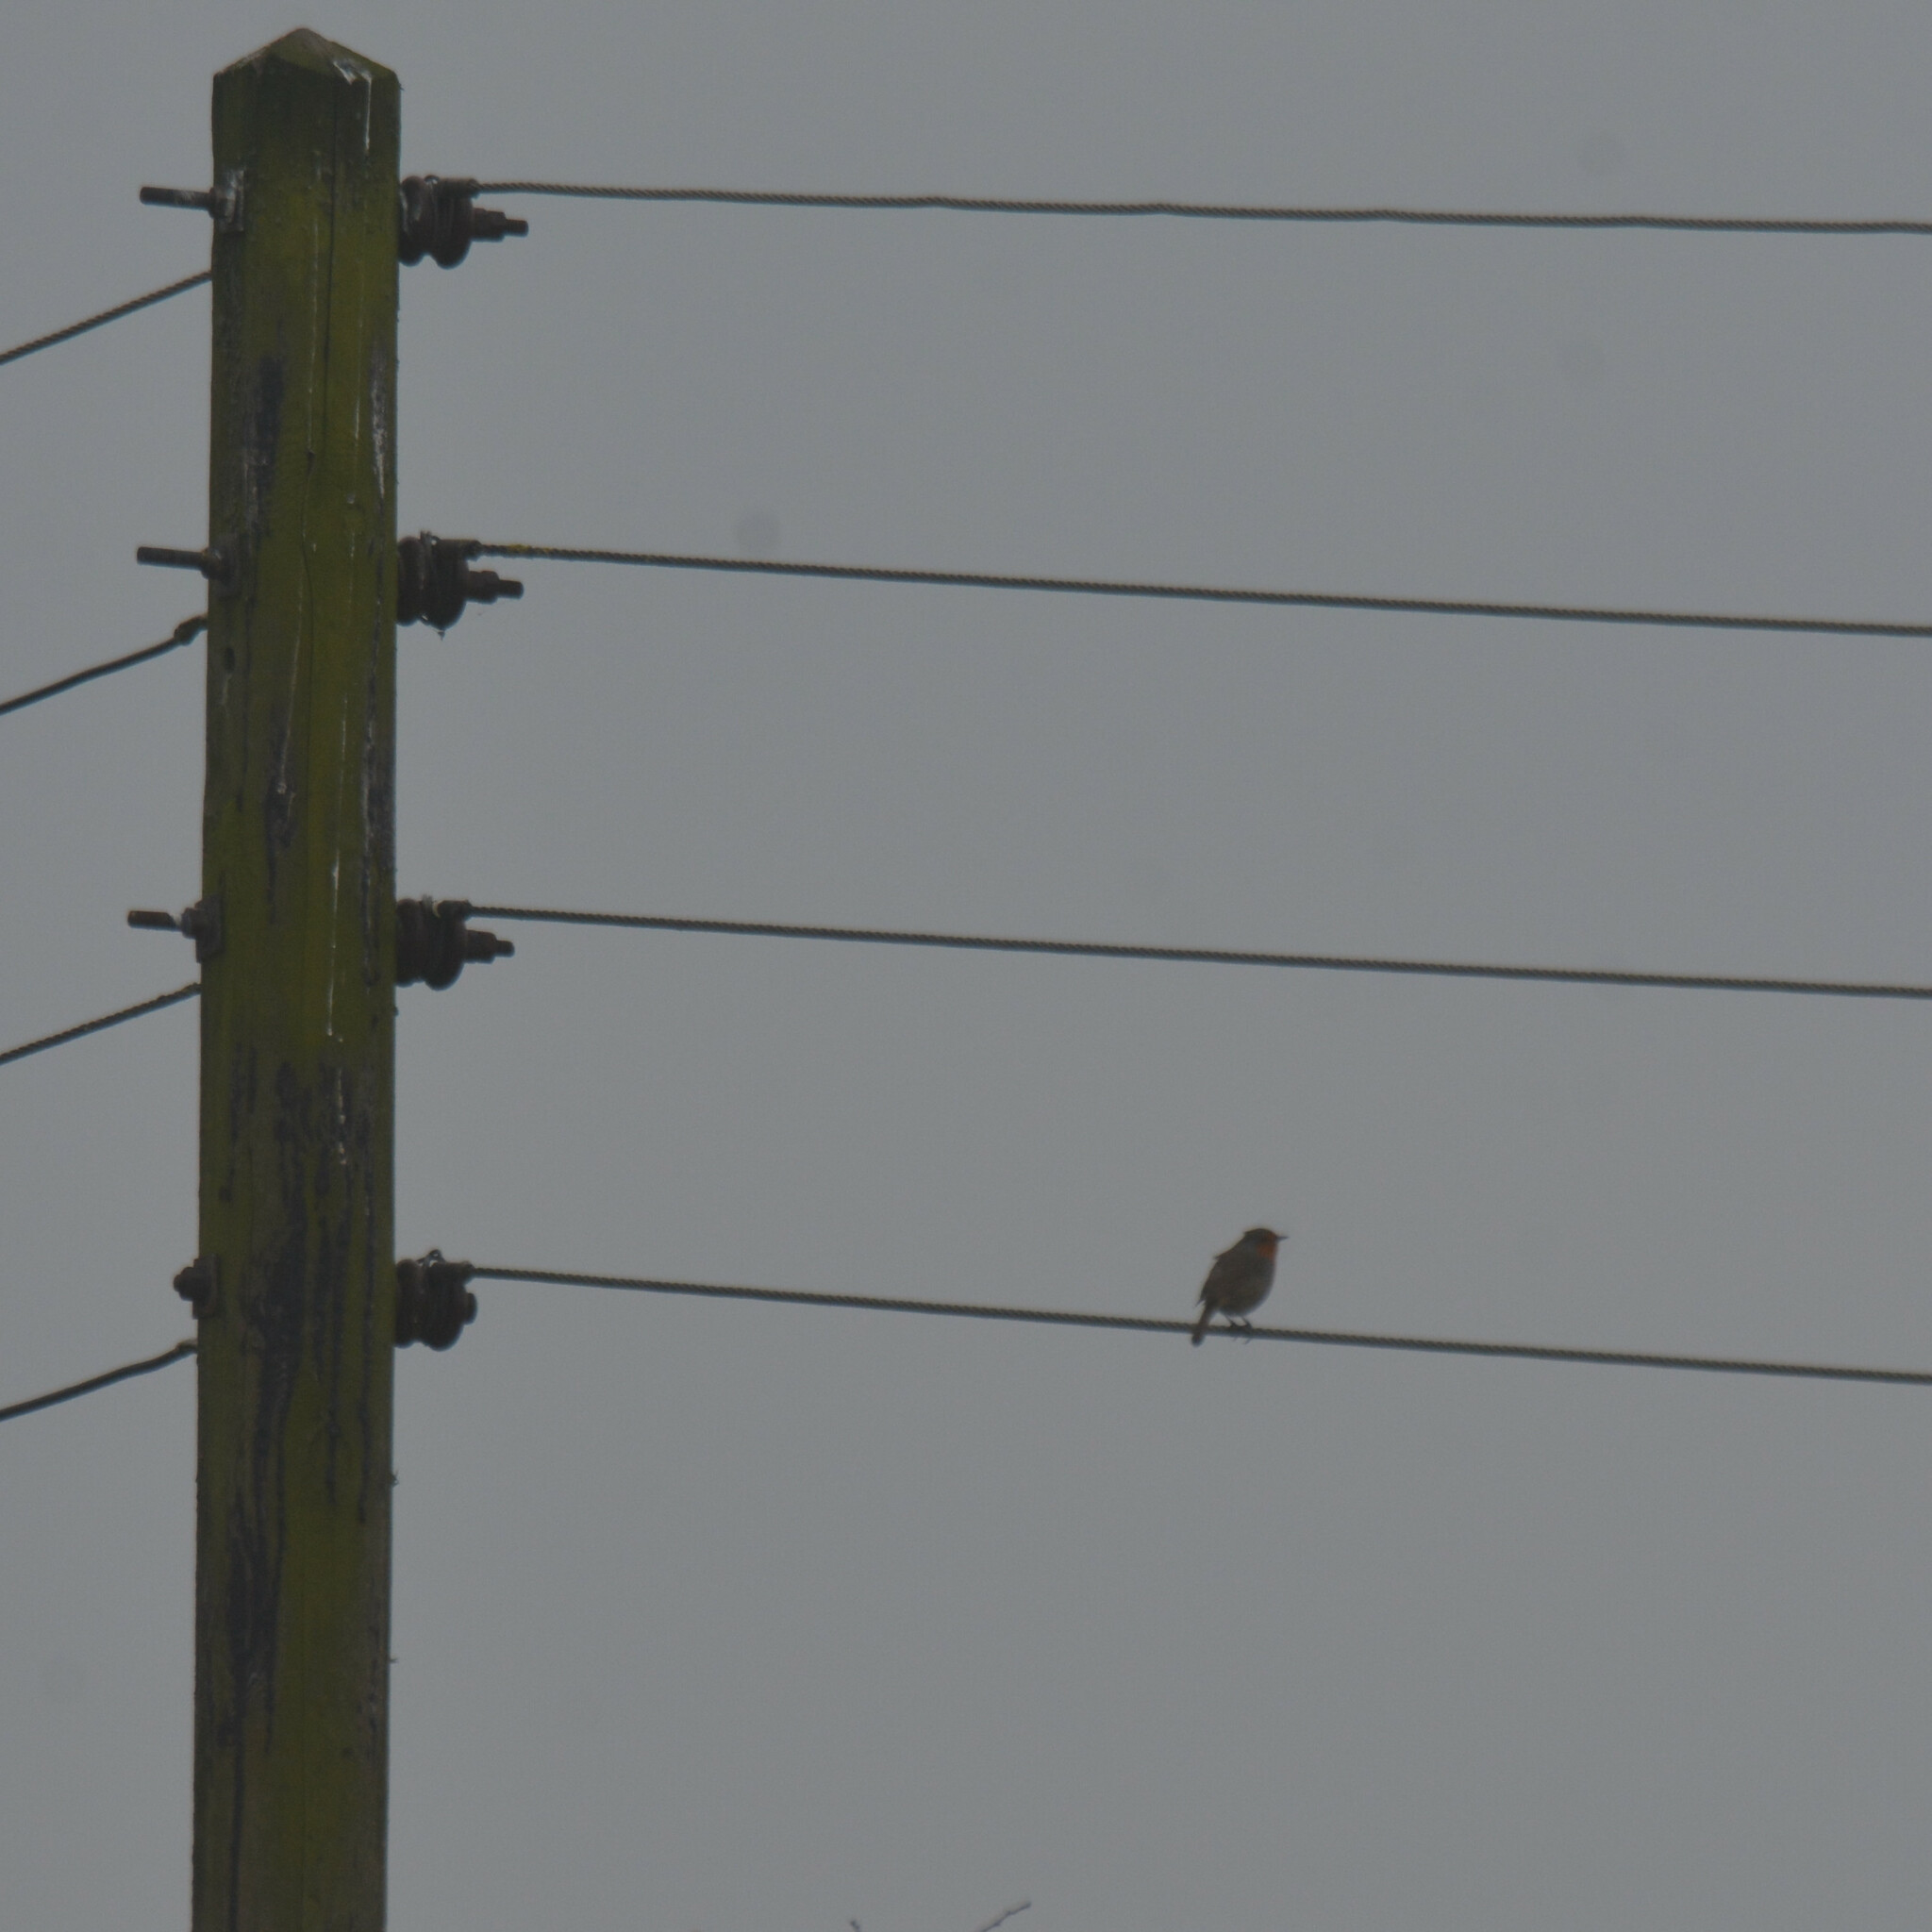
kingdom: Animalia
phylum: Chordata
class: Aves
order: Passeriformes
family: Muscicapidae
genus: Erithacus
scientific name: Erithacus rubecula
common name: European robin
